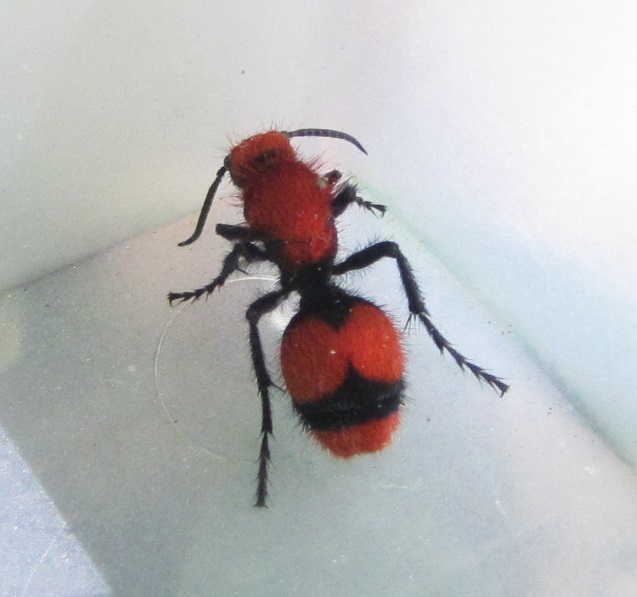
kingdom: Animalia
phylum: Arthropoda
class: Insecta
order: Hymenoptera
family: Mutillidae
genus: Dasymutilla
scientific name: Dasymutilla occidentalis
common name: Common eastern velvet ant
